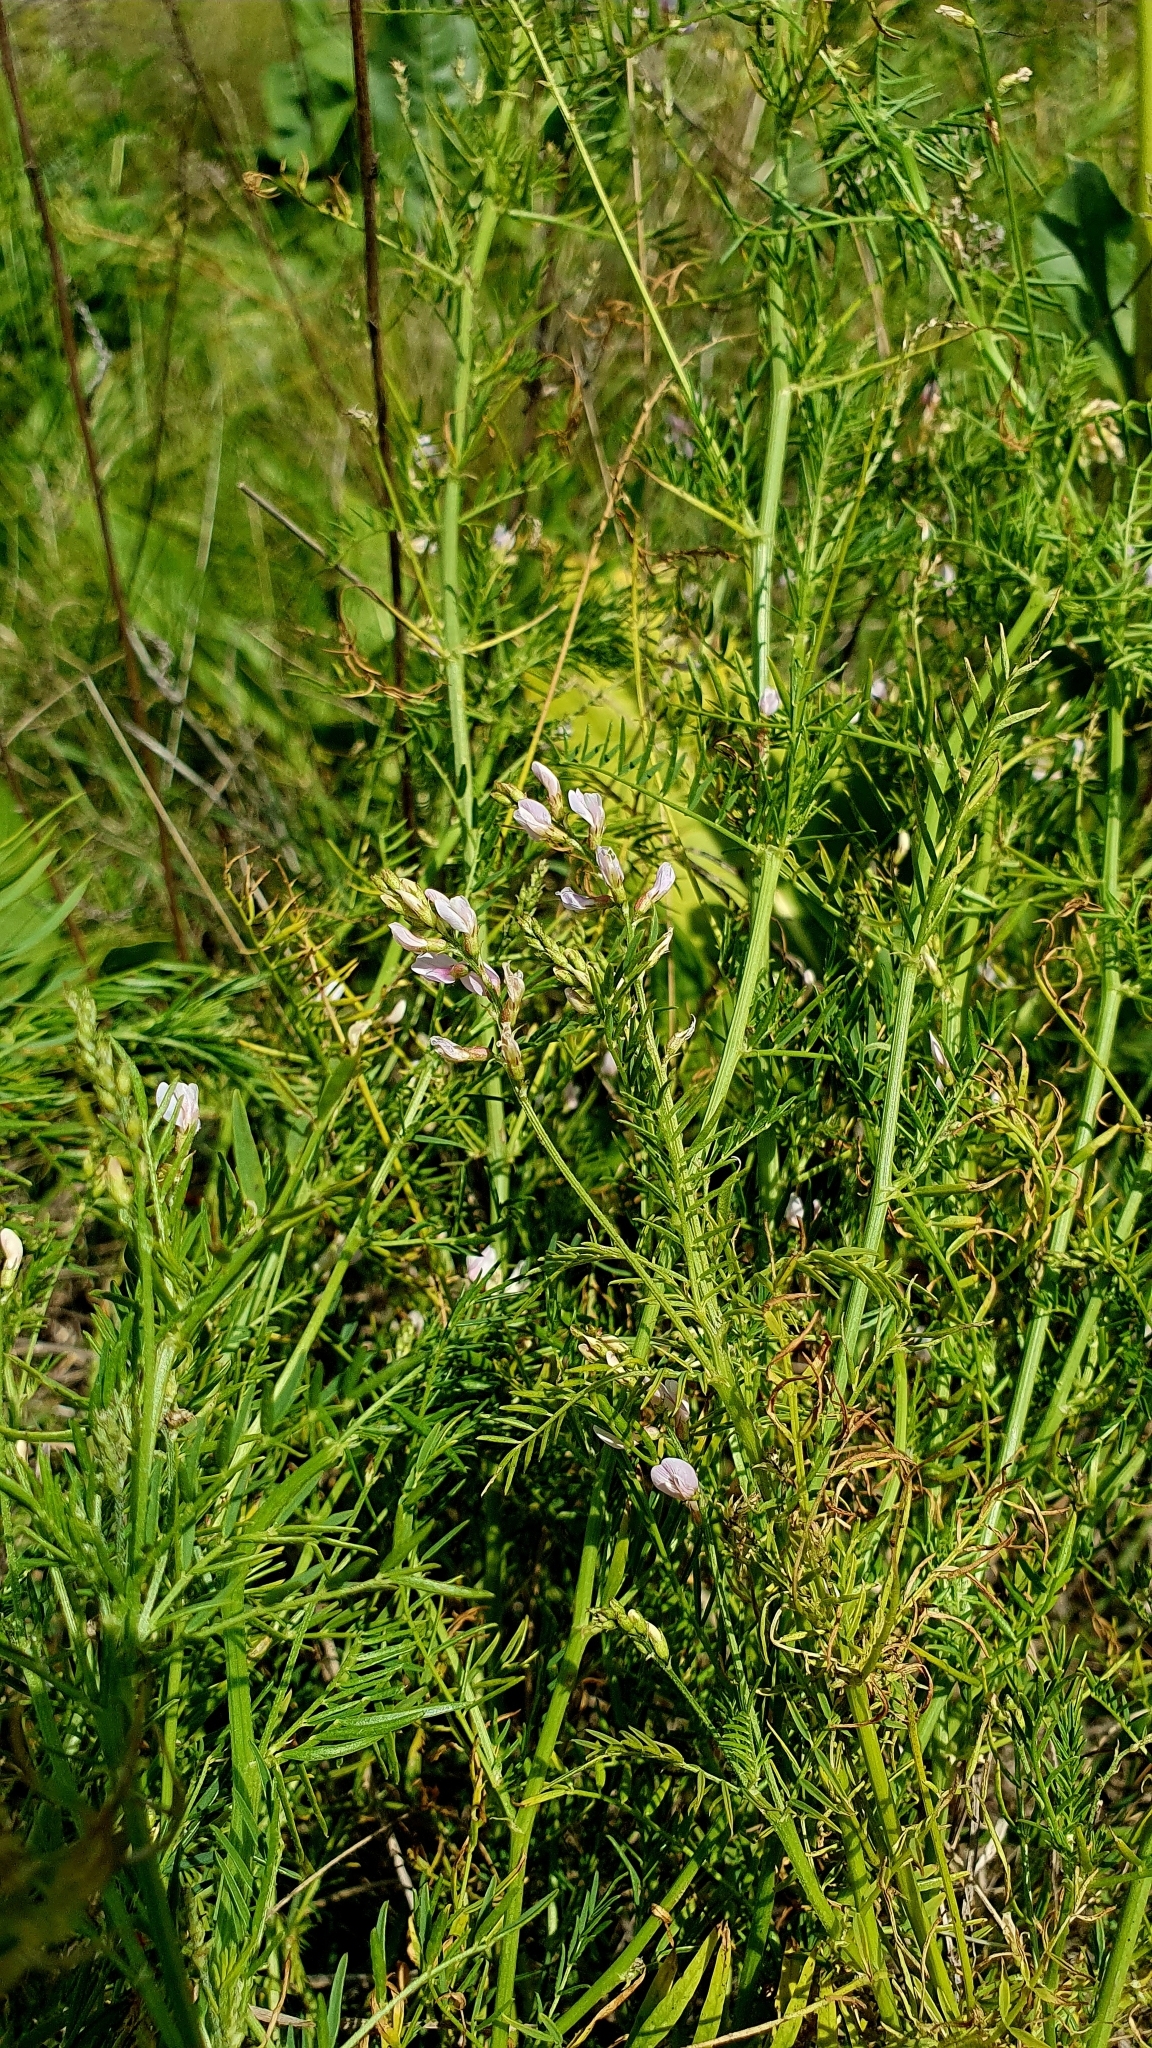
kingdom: Plantae
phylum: Tracheophyta
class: Magnoliopsida
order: Fabales
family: Fabaceae
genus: Astragalus
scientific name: Astragalus sulcatus
